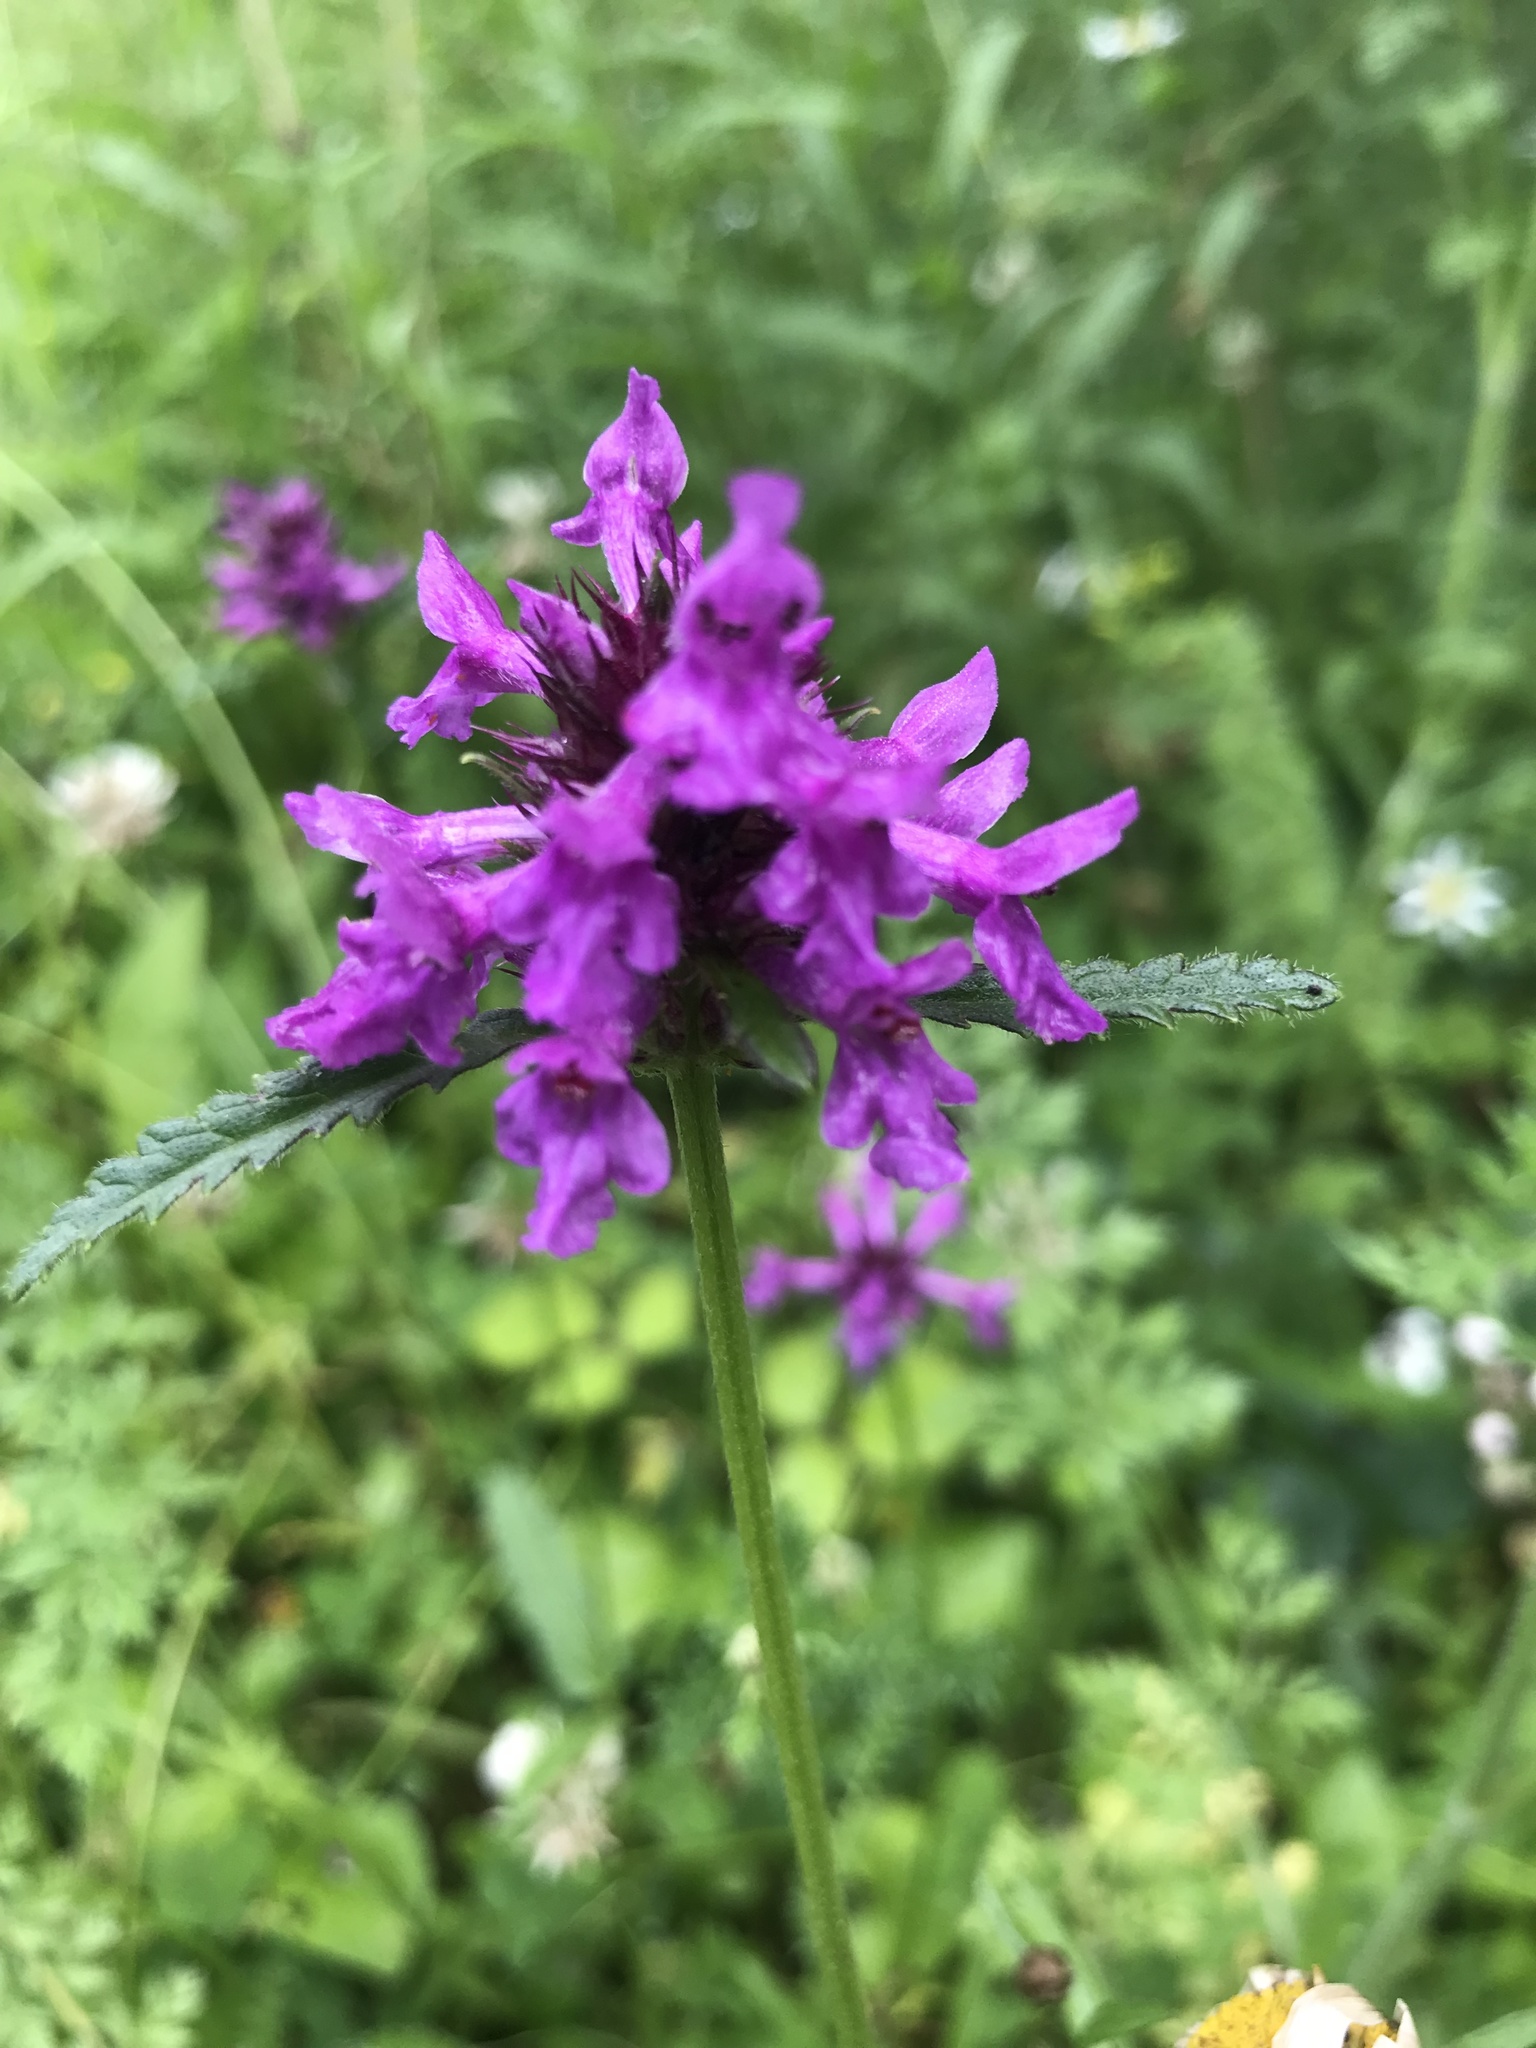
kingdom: Plantae
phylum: Tracheophyta
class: Magnoliopsida
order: Lamiales
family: Lamiaceae
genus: Betonica
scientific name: Betonica officinalis
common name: Bishop's-wort
